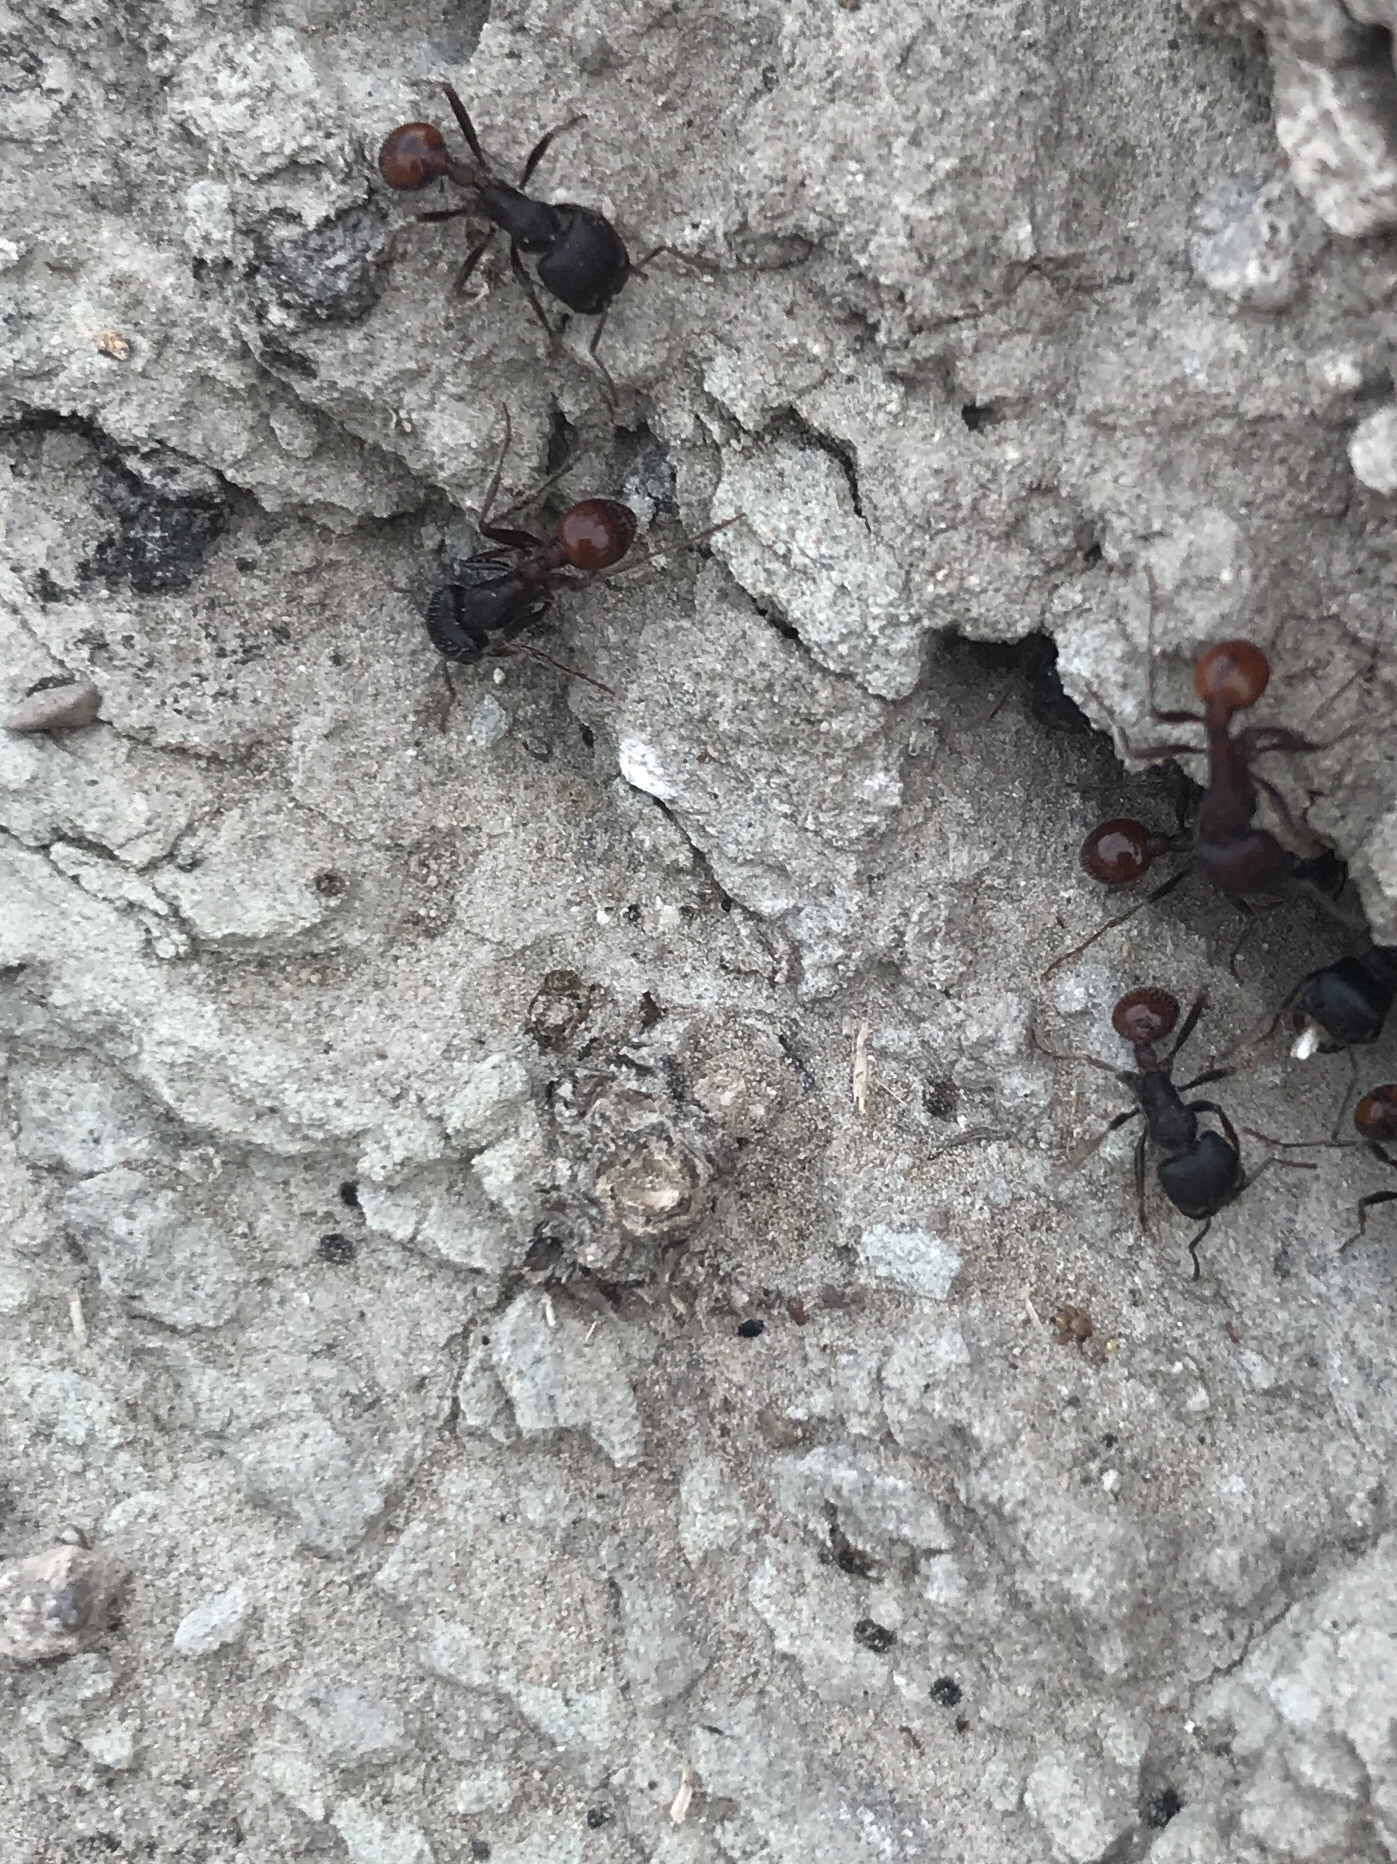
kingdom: Animalia
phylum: Arthropoda
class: Insecta
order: Hymenoptera
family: Formicidae
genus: Pogonomyrmex
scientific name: Pogonomyrmex rugosus
